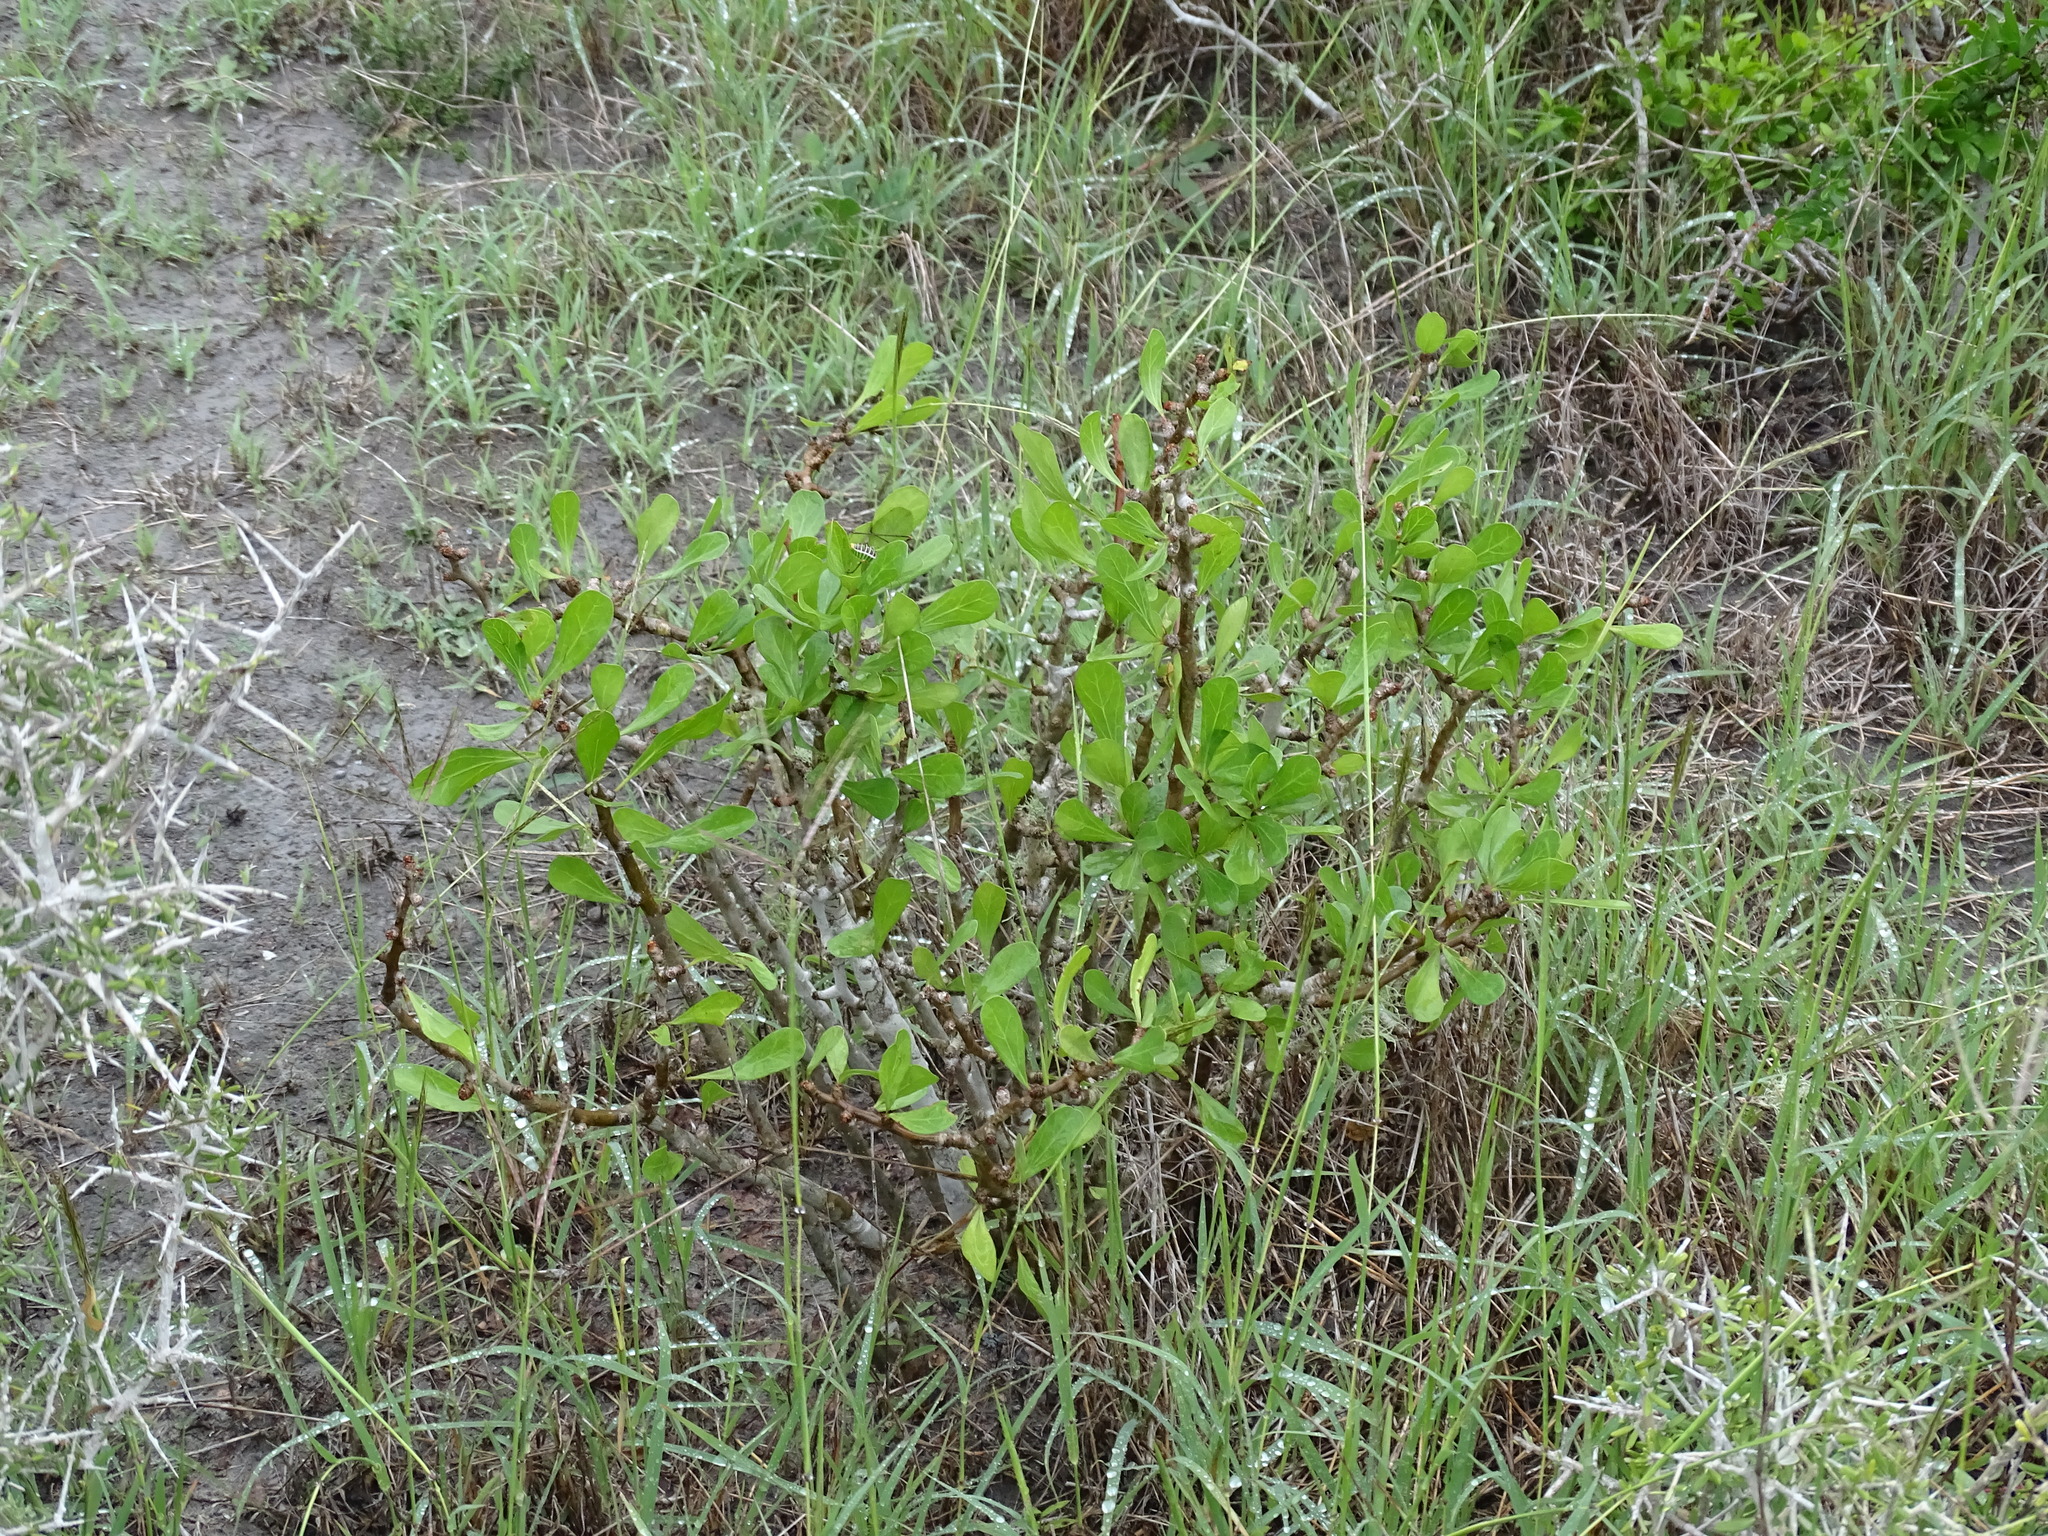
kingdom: Plantae
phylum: Tracheophyta
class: Magnoliopsida
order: Malpighiales
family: Euphorbiaceae
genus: Jatropha
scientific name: Jatropha dioica
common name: Leatherstem
